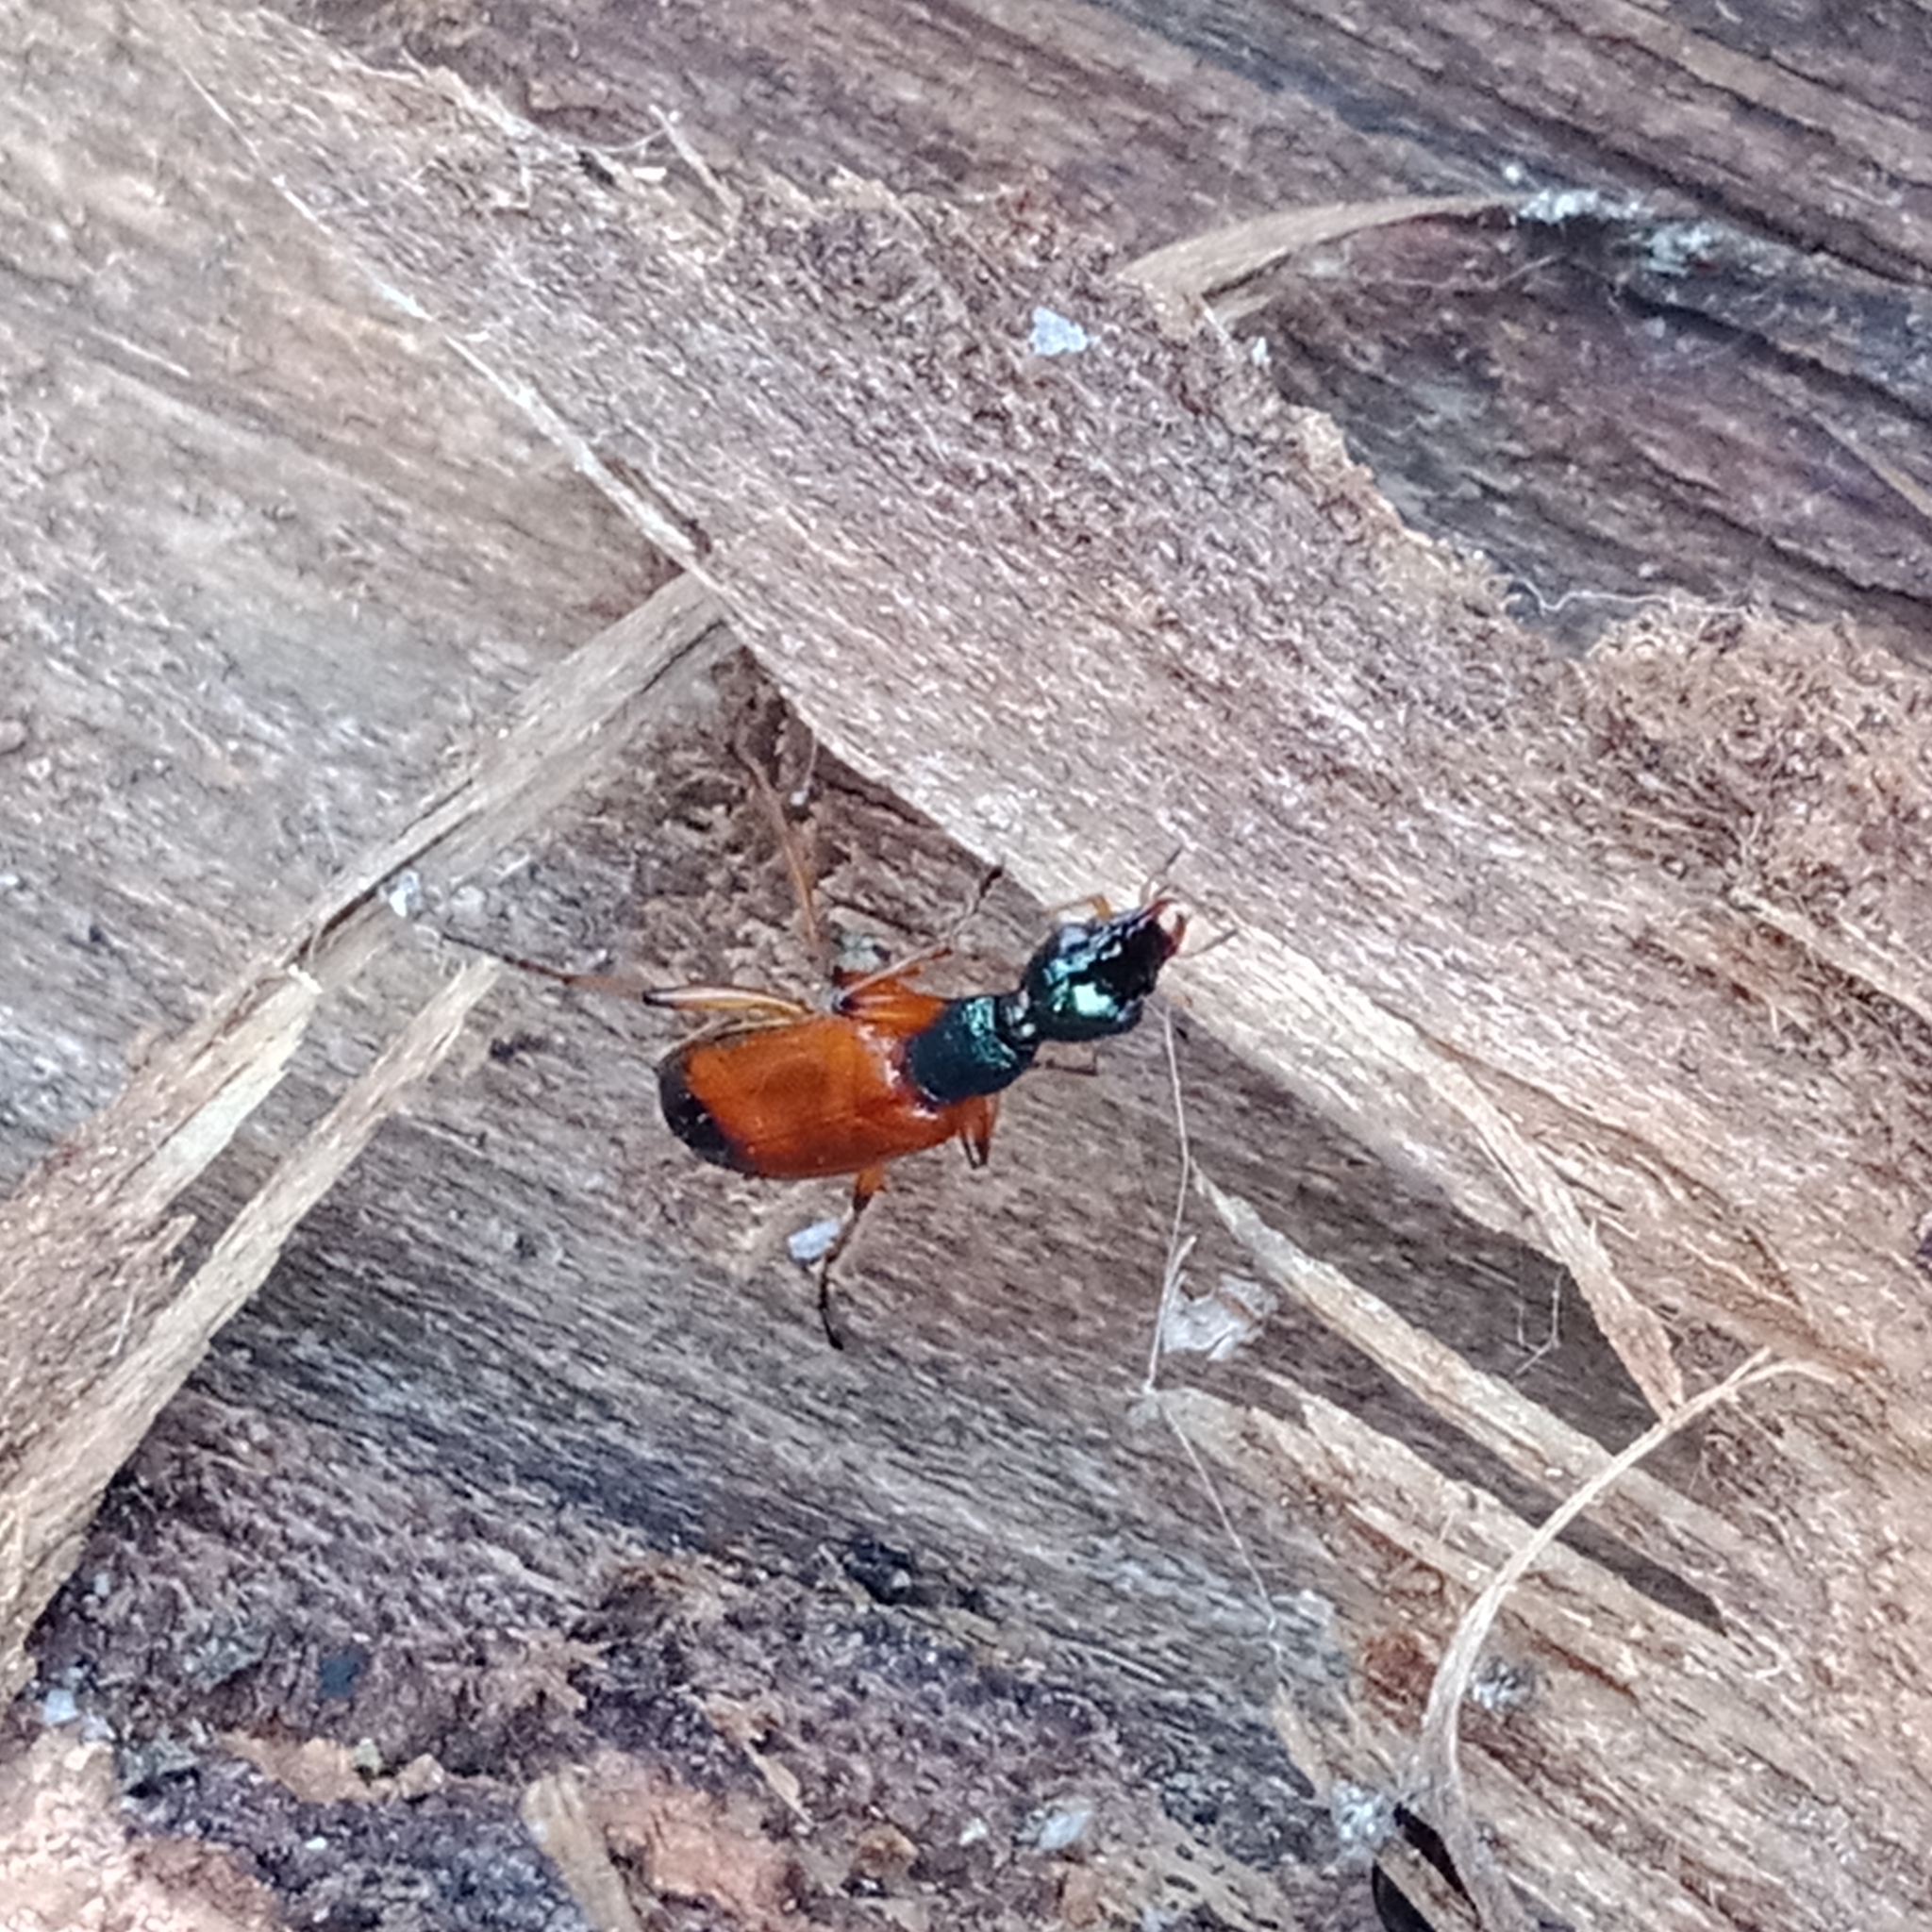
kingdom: Animalia
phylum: Arthropoda
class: Insecta
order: Coleoptera
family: Carabidae
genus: Odacantha
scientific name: Odacantha melanura
